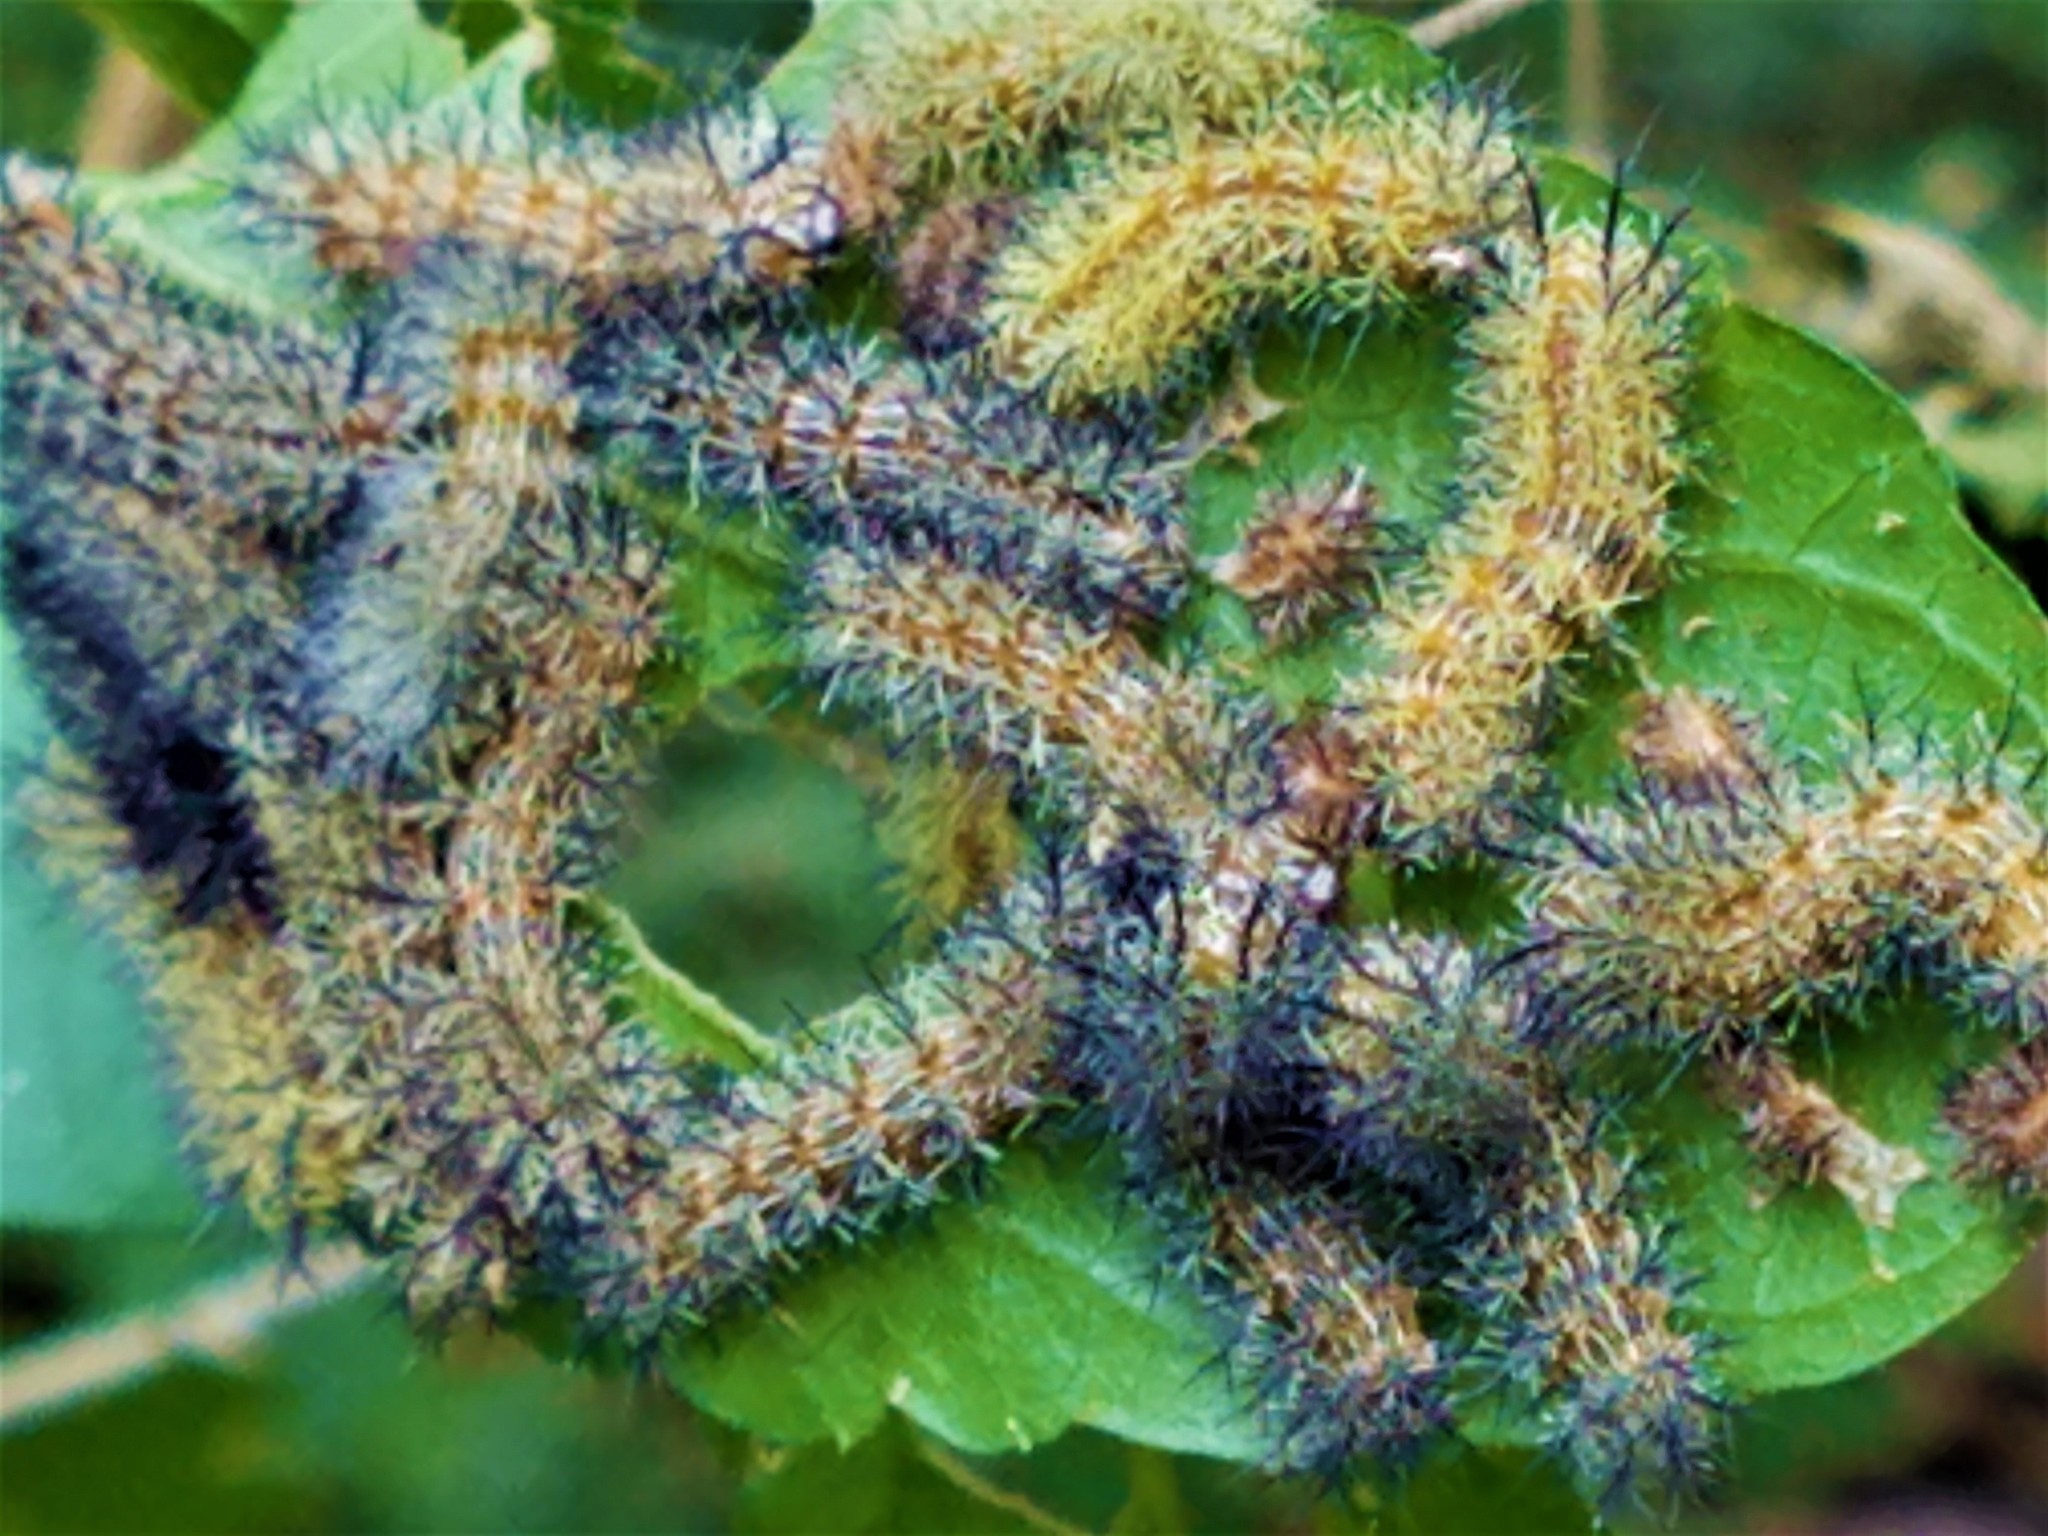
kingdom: Animalia
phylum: Arthropoda
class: Insecta
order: Lepidoptera
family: Saturniidae
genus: Automeris
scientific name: Automeris io
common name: Io moth
